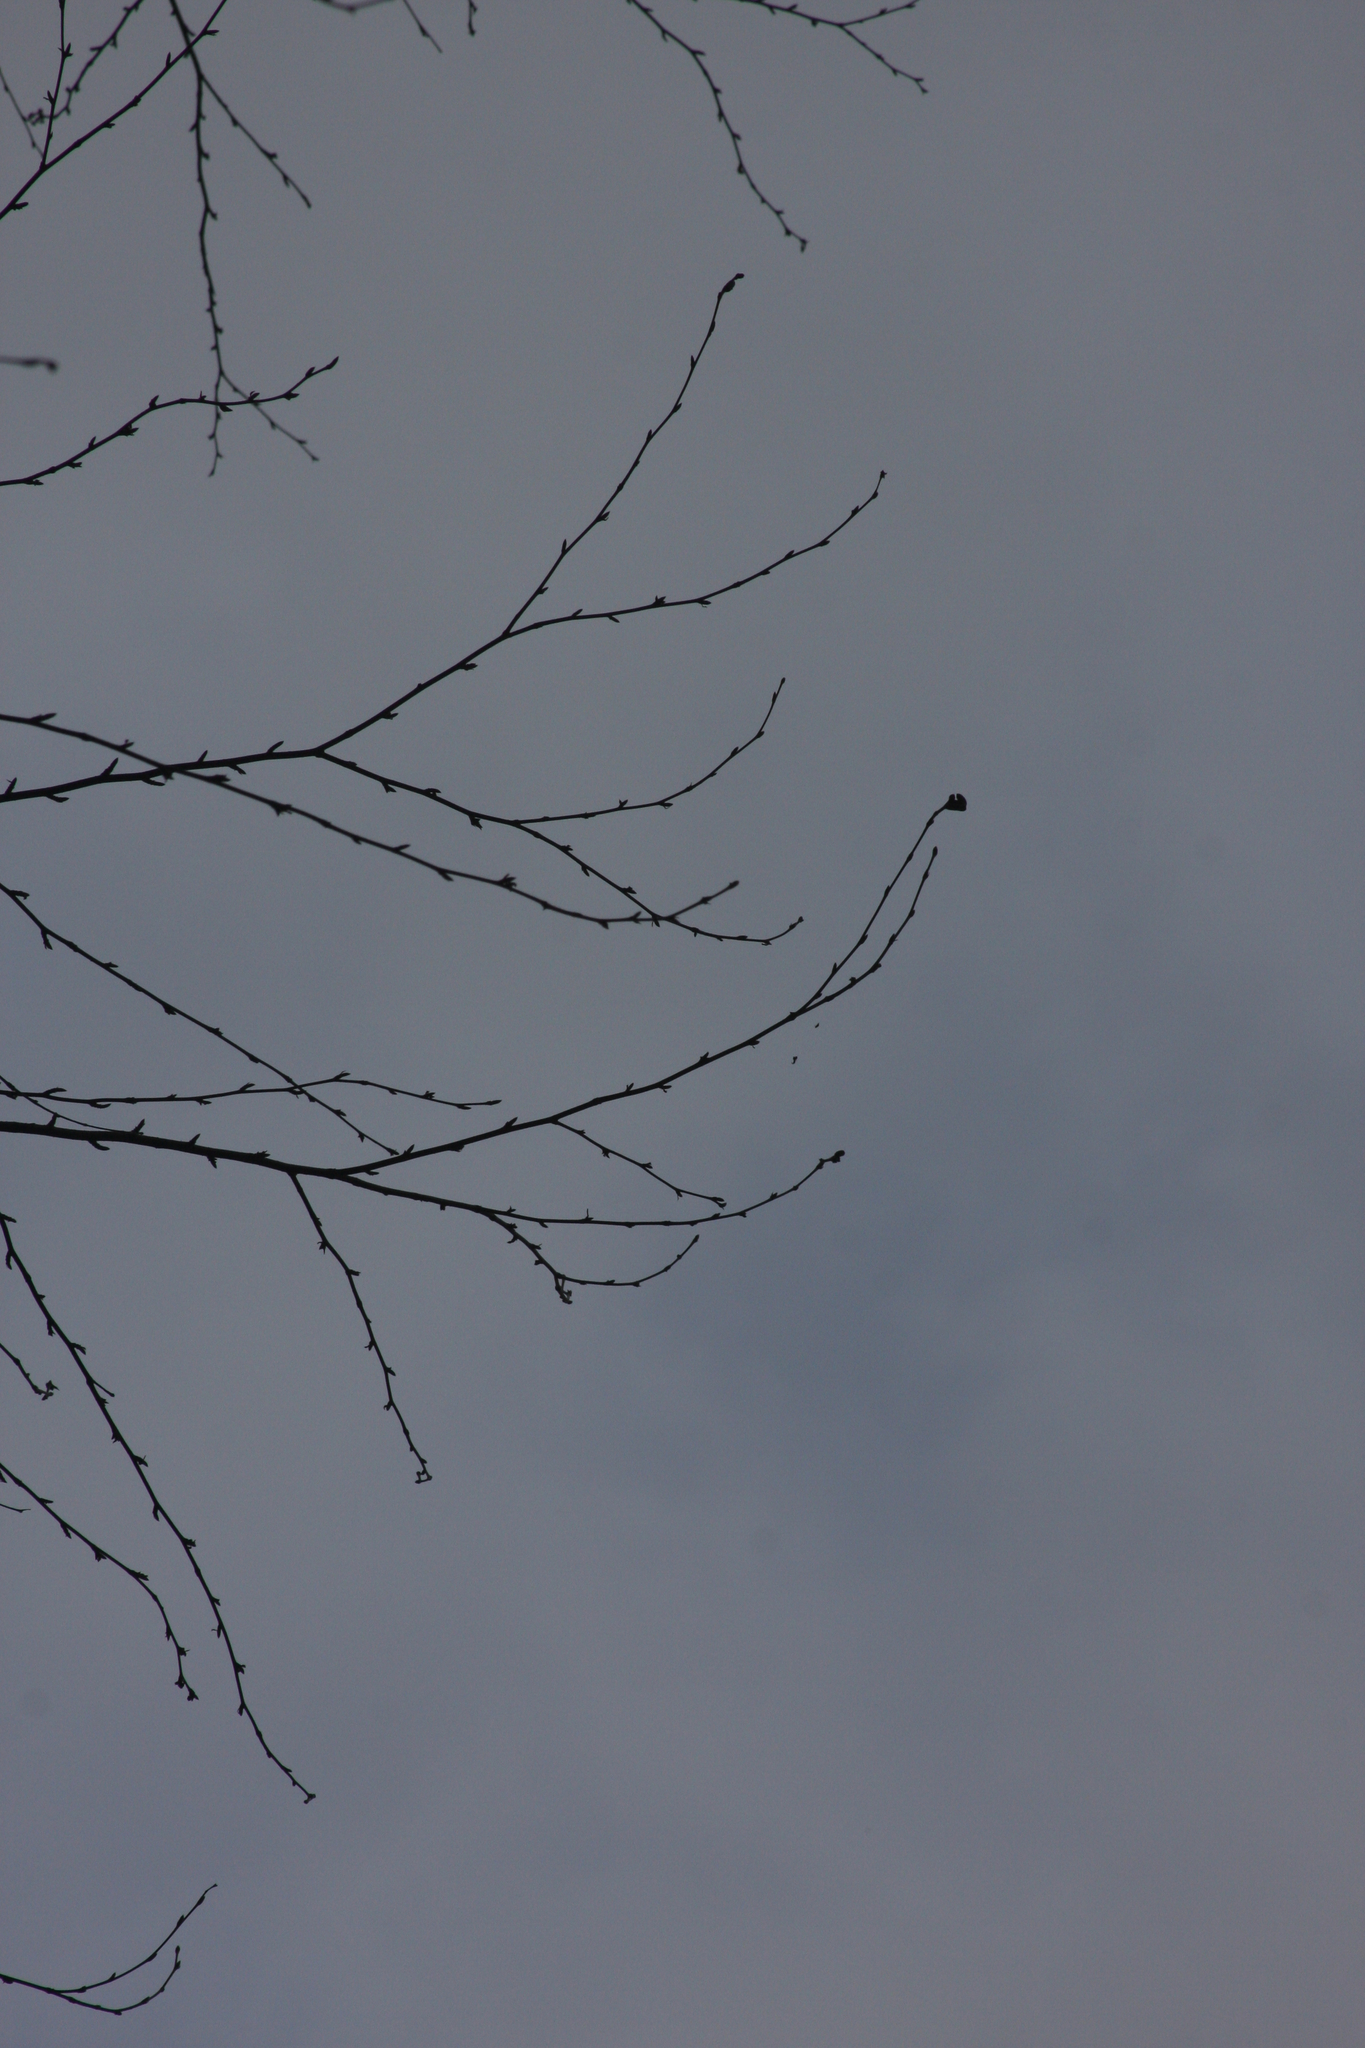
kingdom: Plantae
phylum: Tracheophyta
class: Magnoliopsida
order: Fagales
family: Betulaceae
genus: Betula
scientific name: Betula alleghaniensis
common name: Yellow birch
